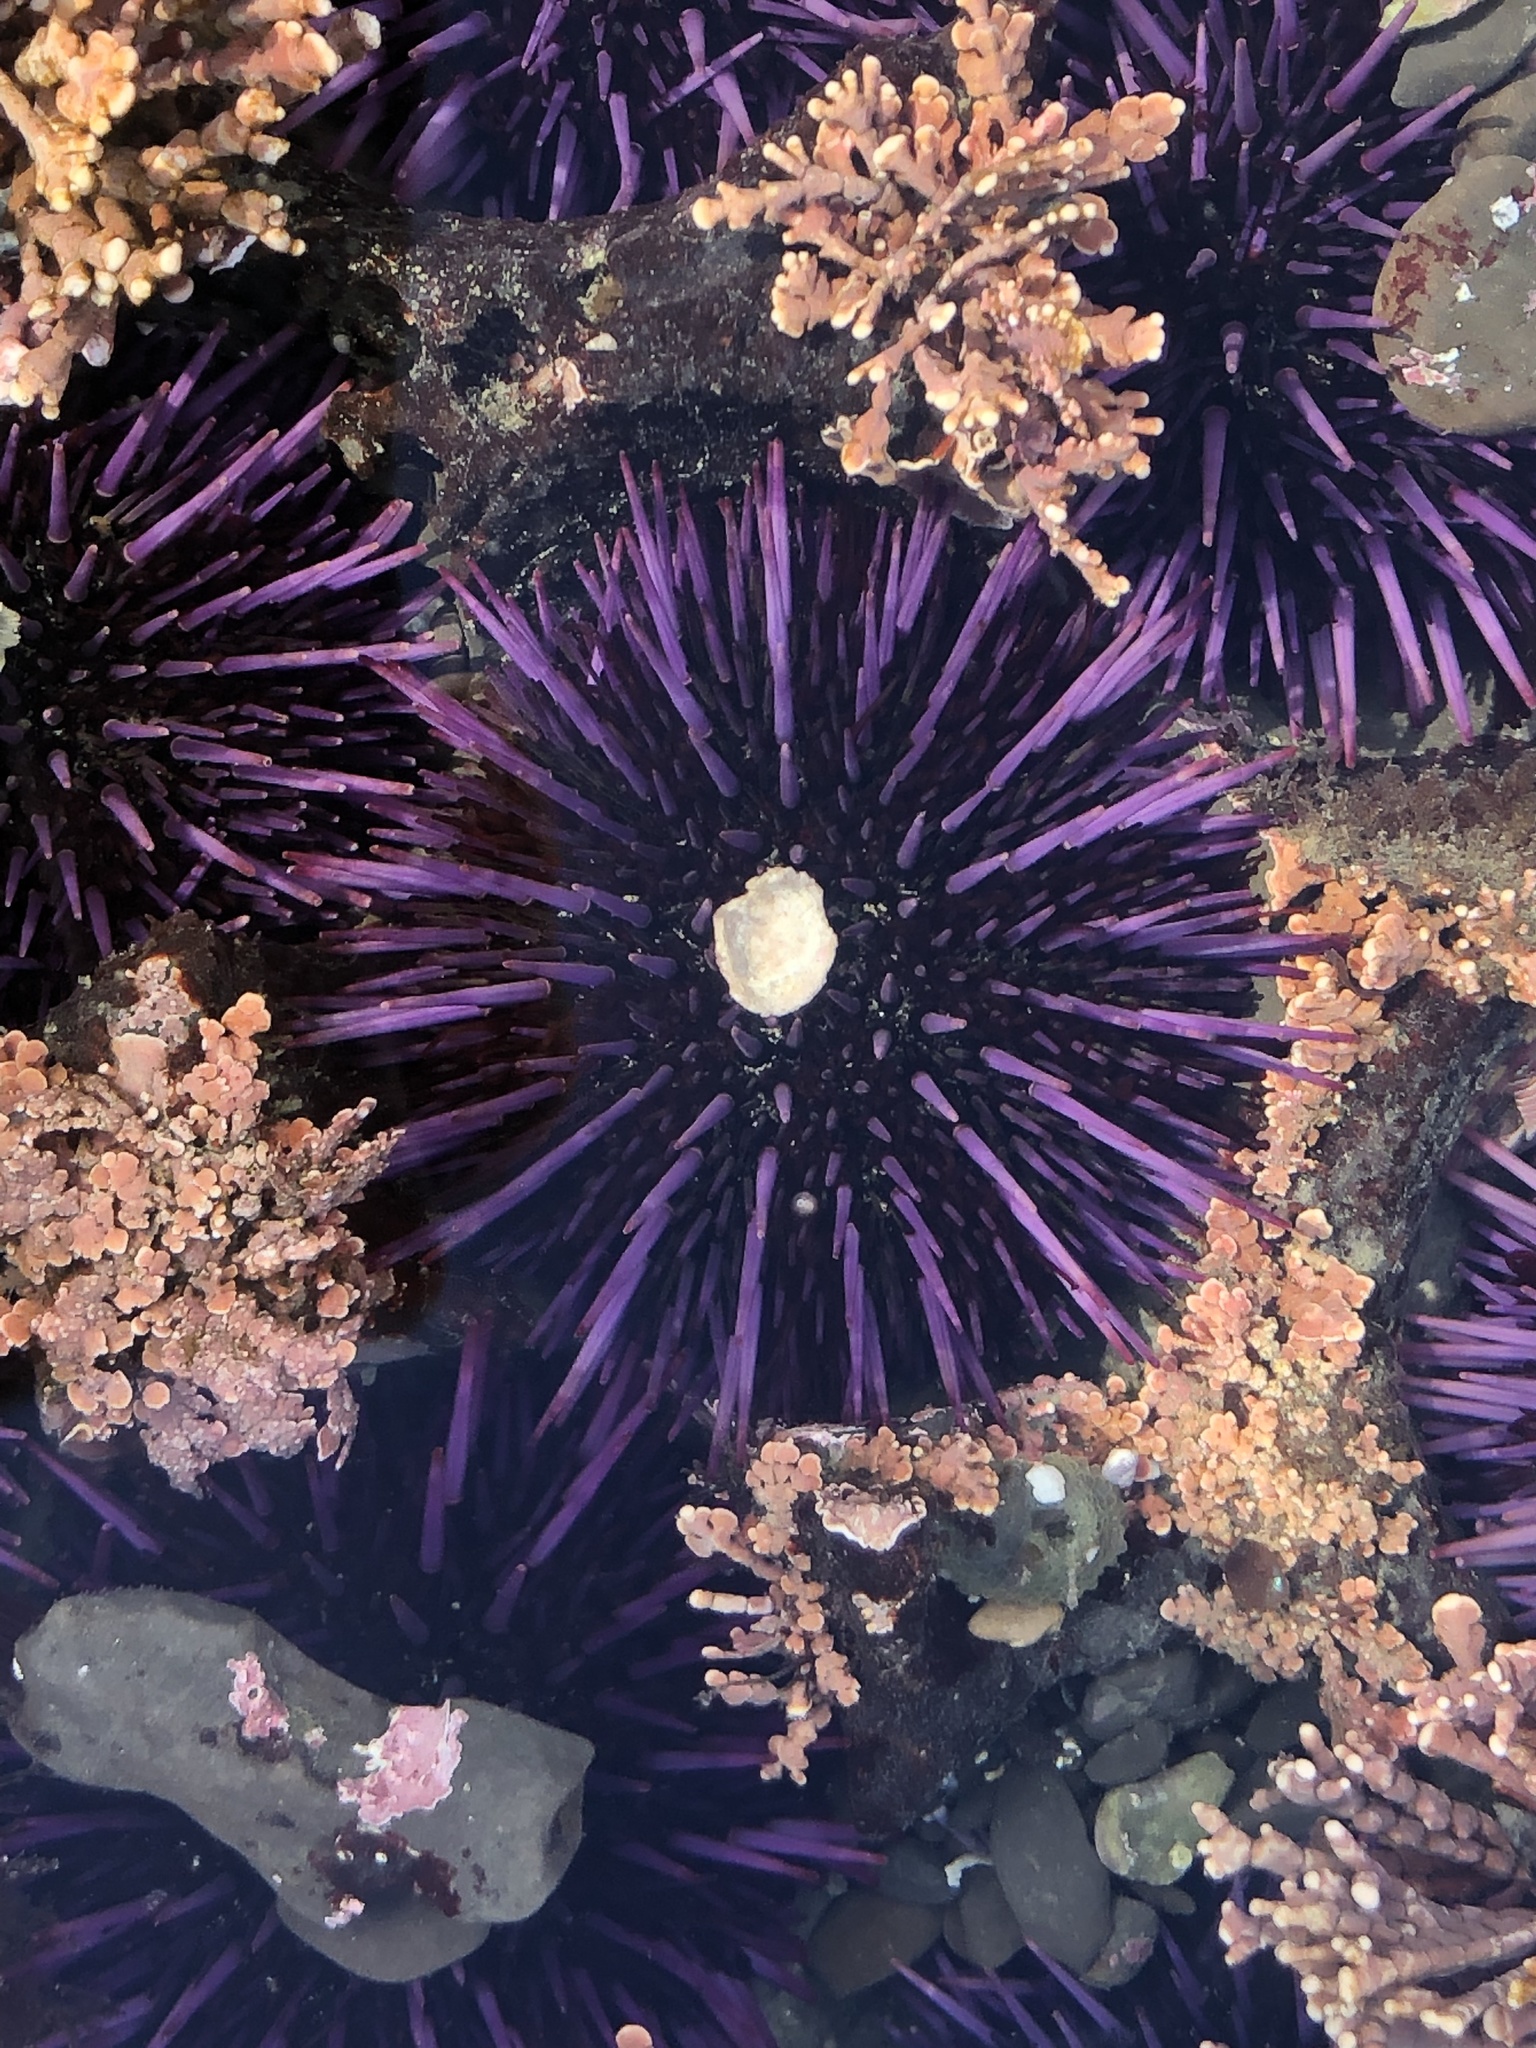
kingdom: Animalia
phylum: Echinodermata
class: Echinoidea
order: Camarodonta
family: Strongylocentrotidae
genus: Strongylocentrotus
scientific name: Strongylocentrotus purpuratus
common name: Purple sea urchin
